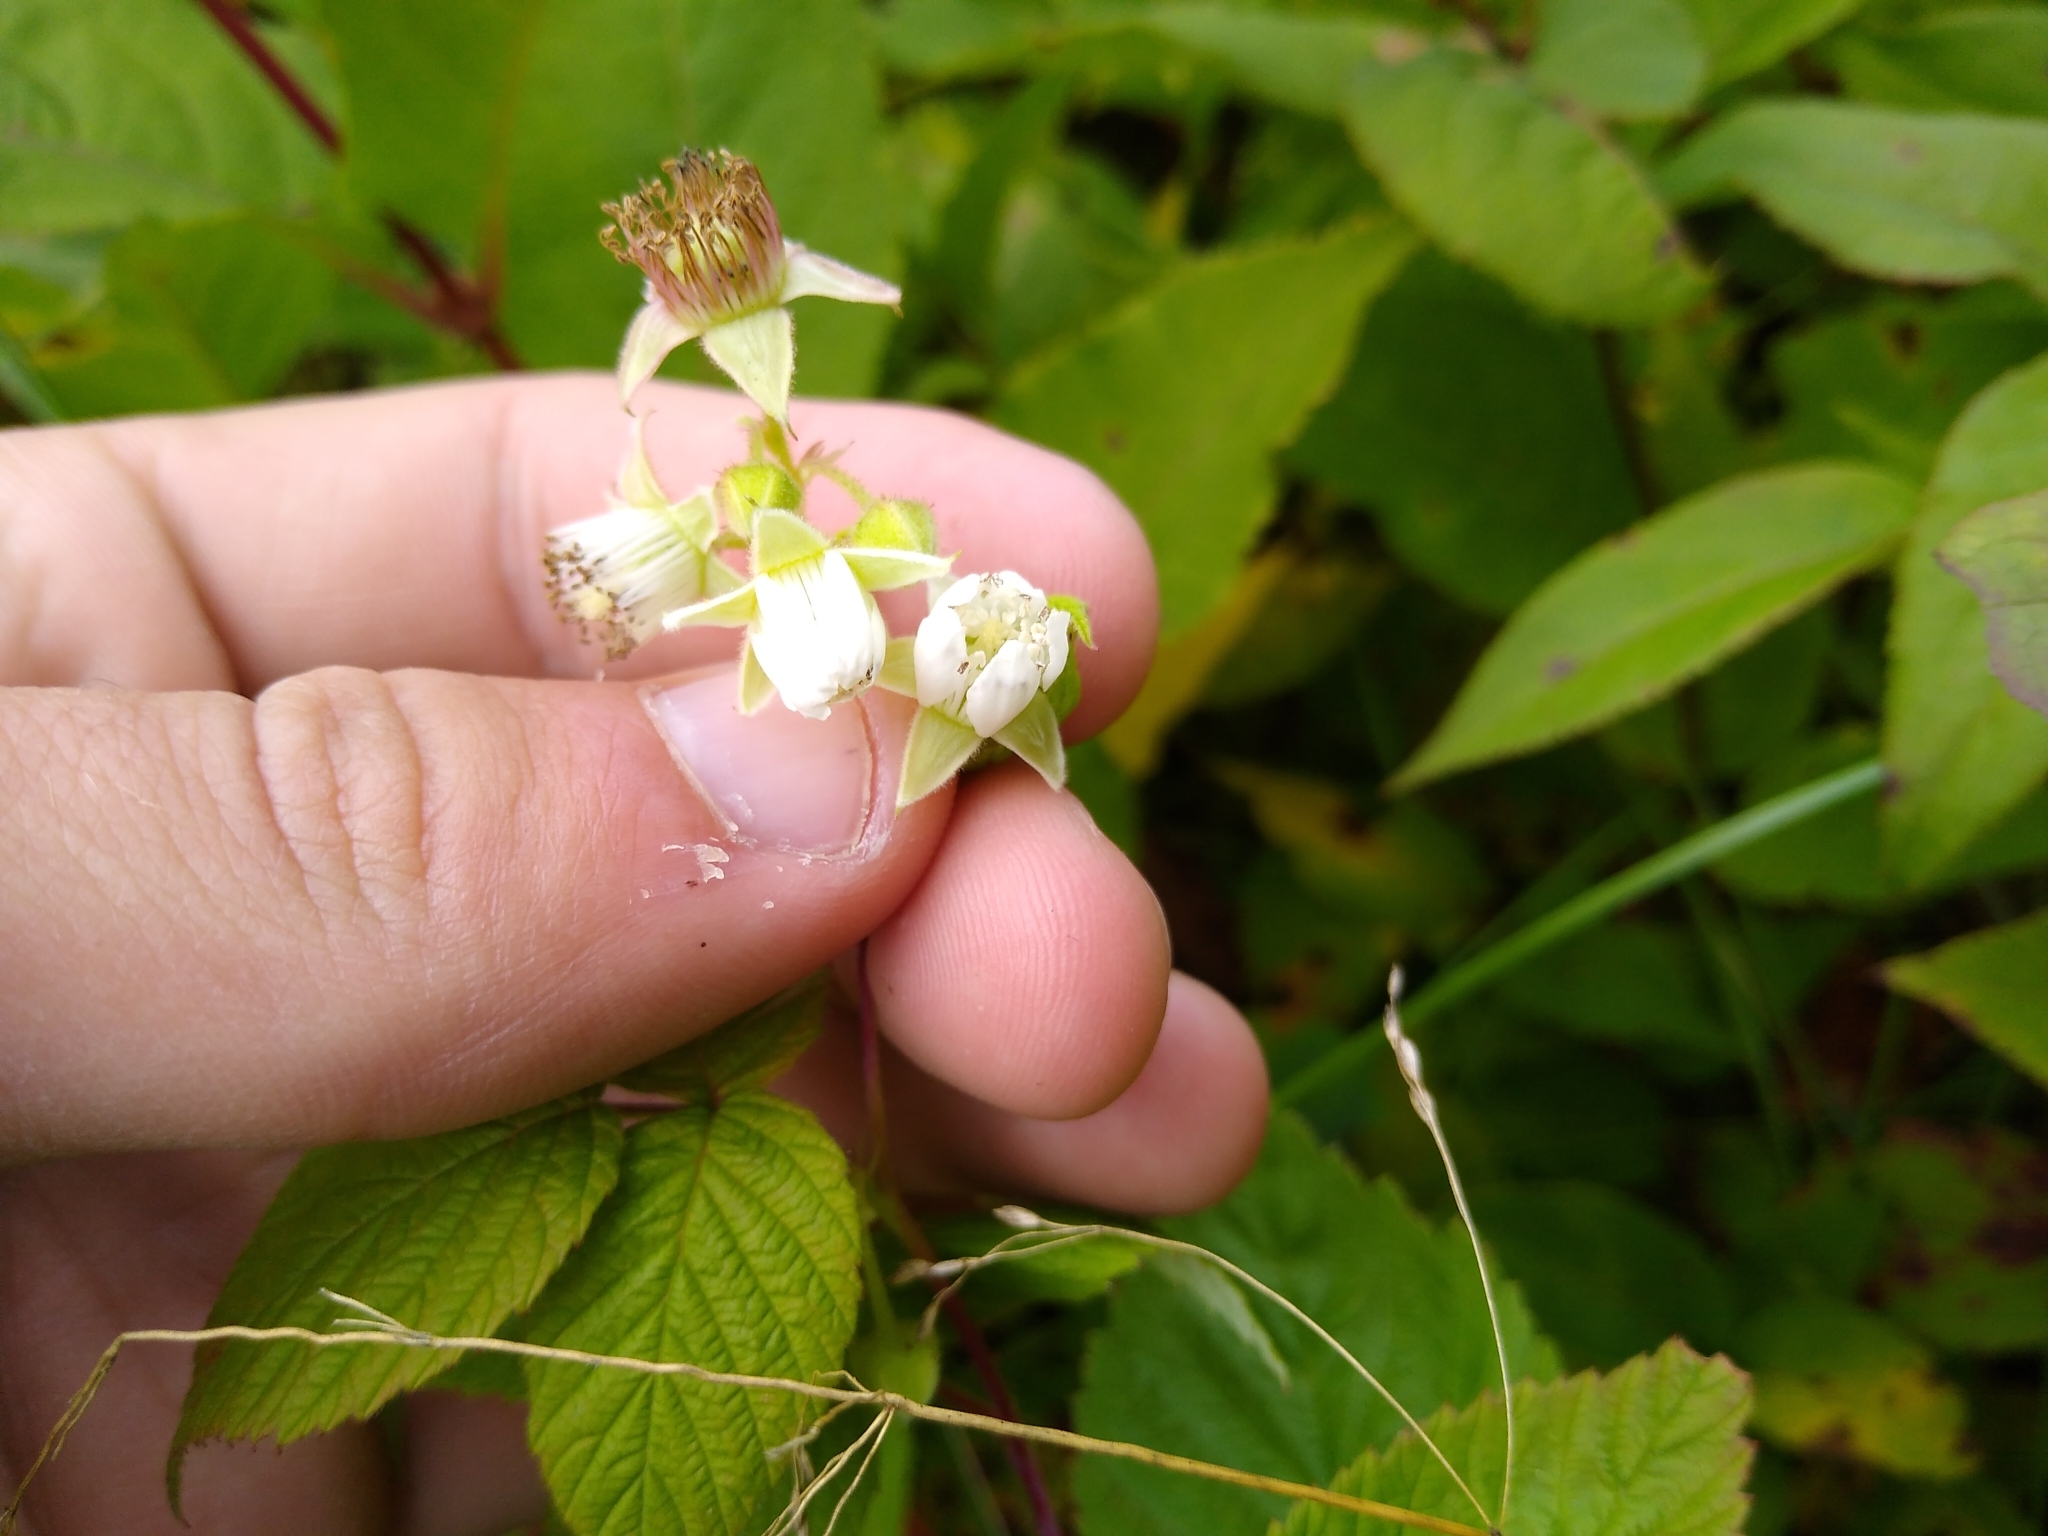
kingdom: Plantae
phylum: Tracheophyta
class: Magnoliopsida
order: Rosales
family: Rosaceae
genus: Rubus
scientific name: Rubus idaeus
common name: Raspberry
